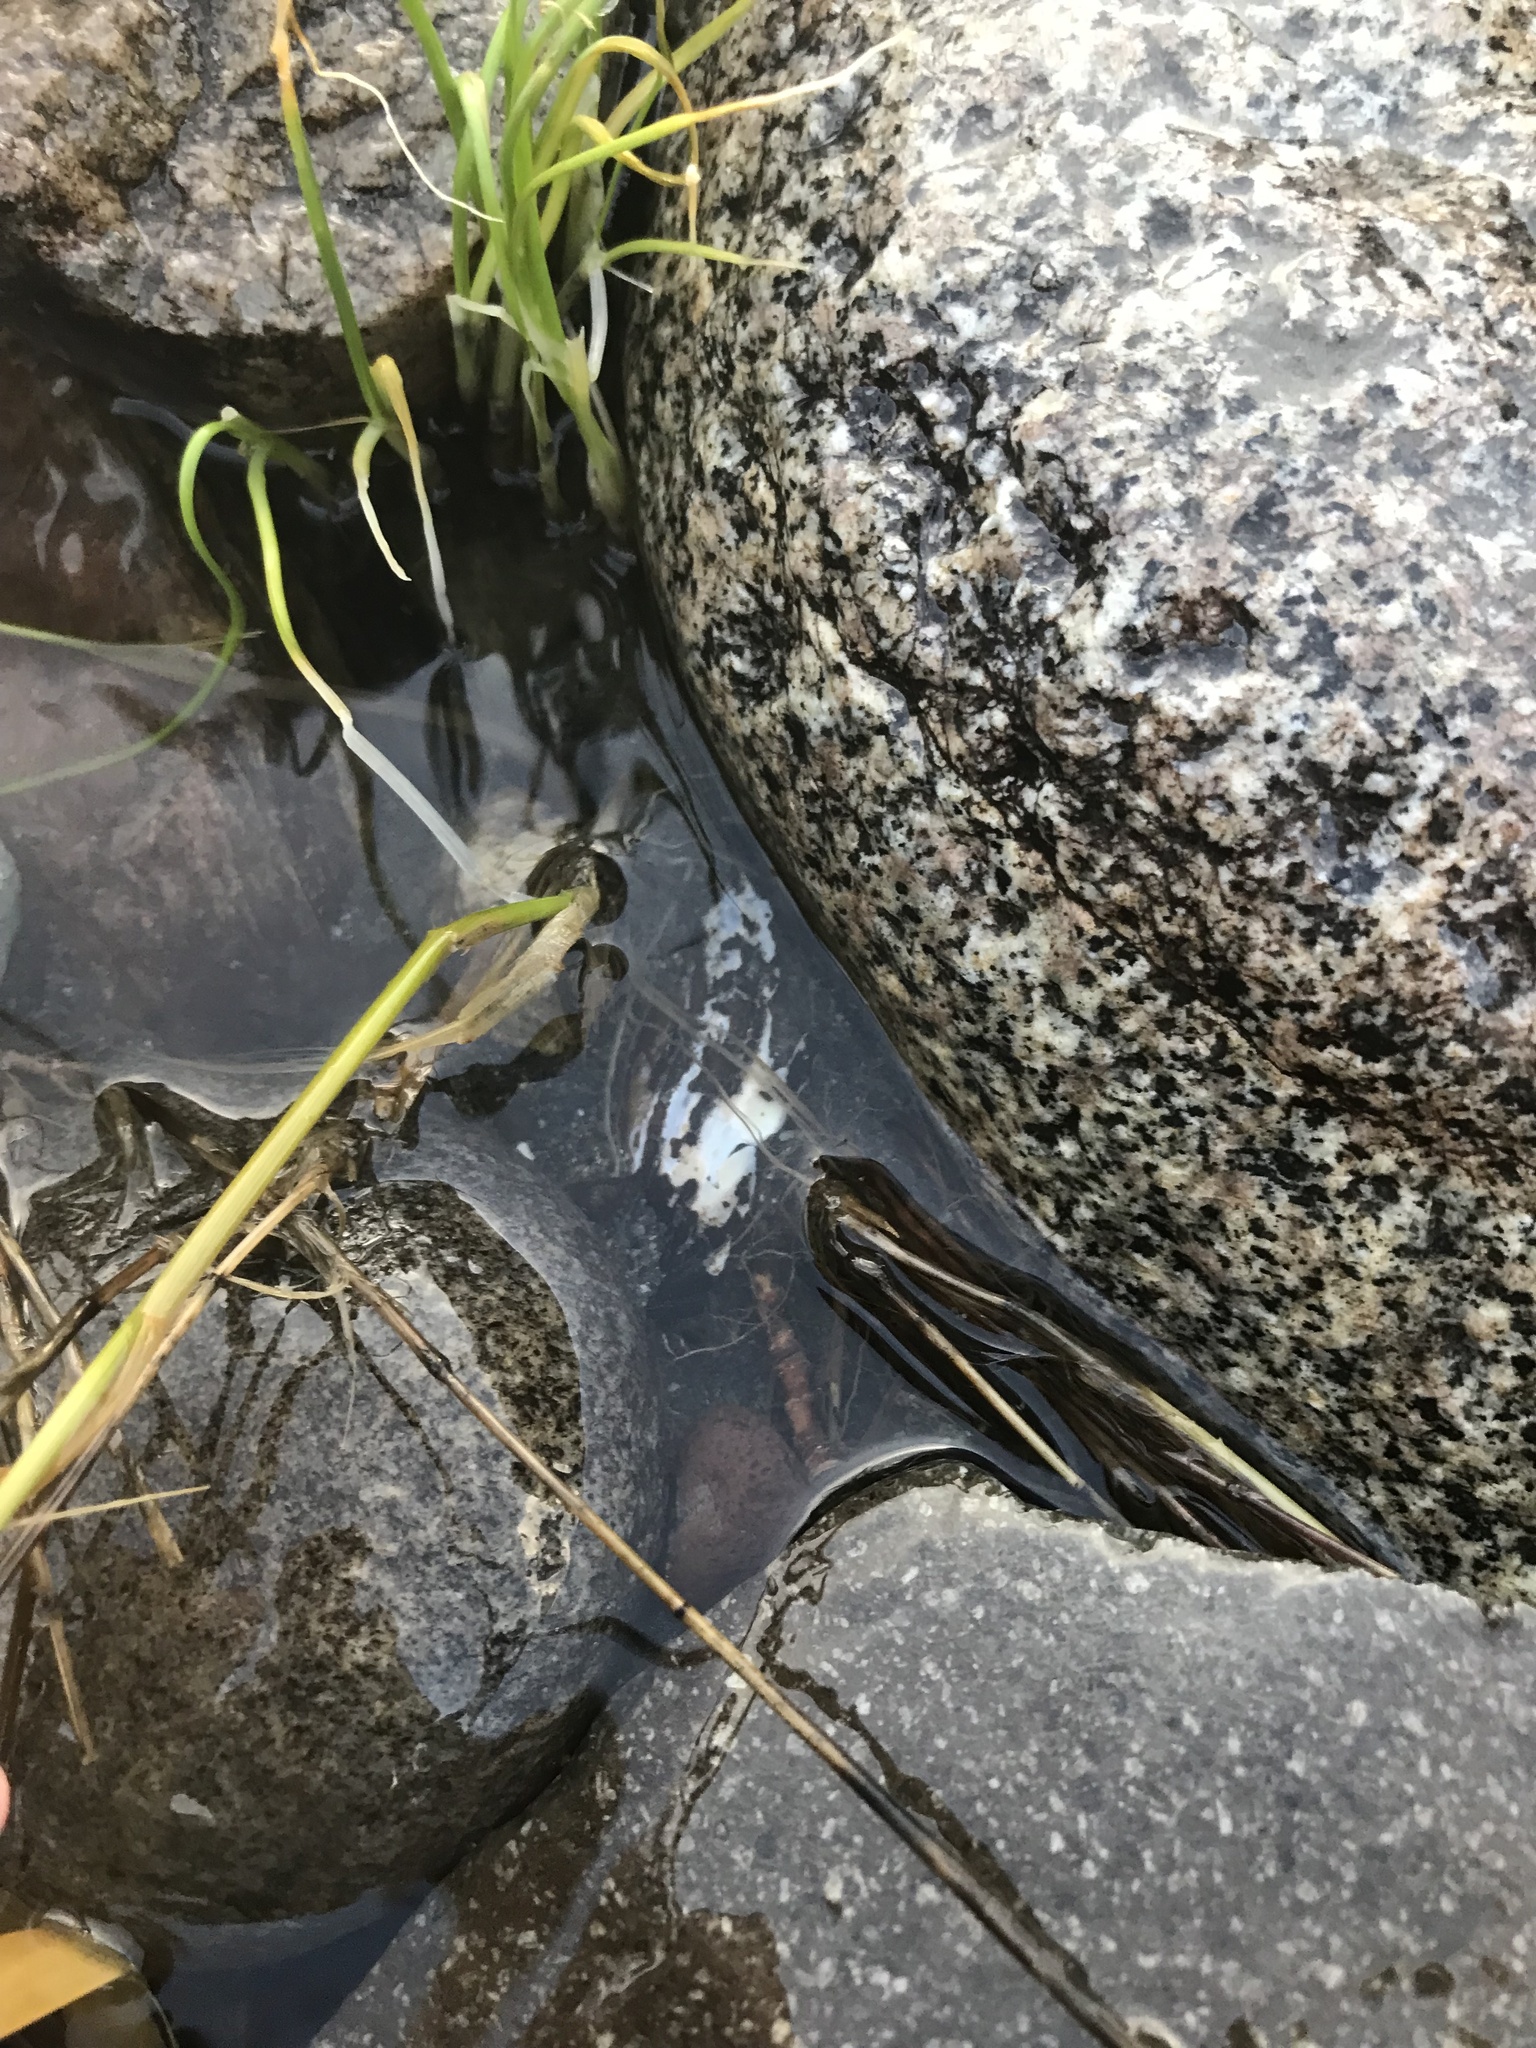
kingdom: Animalia
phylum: Mollusca
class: Bivalvia
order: Unionida
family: Margaritiferidae
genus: Margaritifera
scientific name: Margaritifera falcata
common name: Western pearlshell
